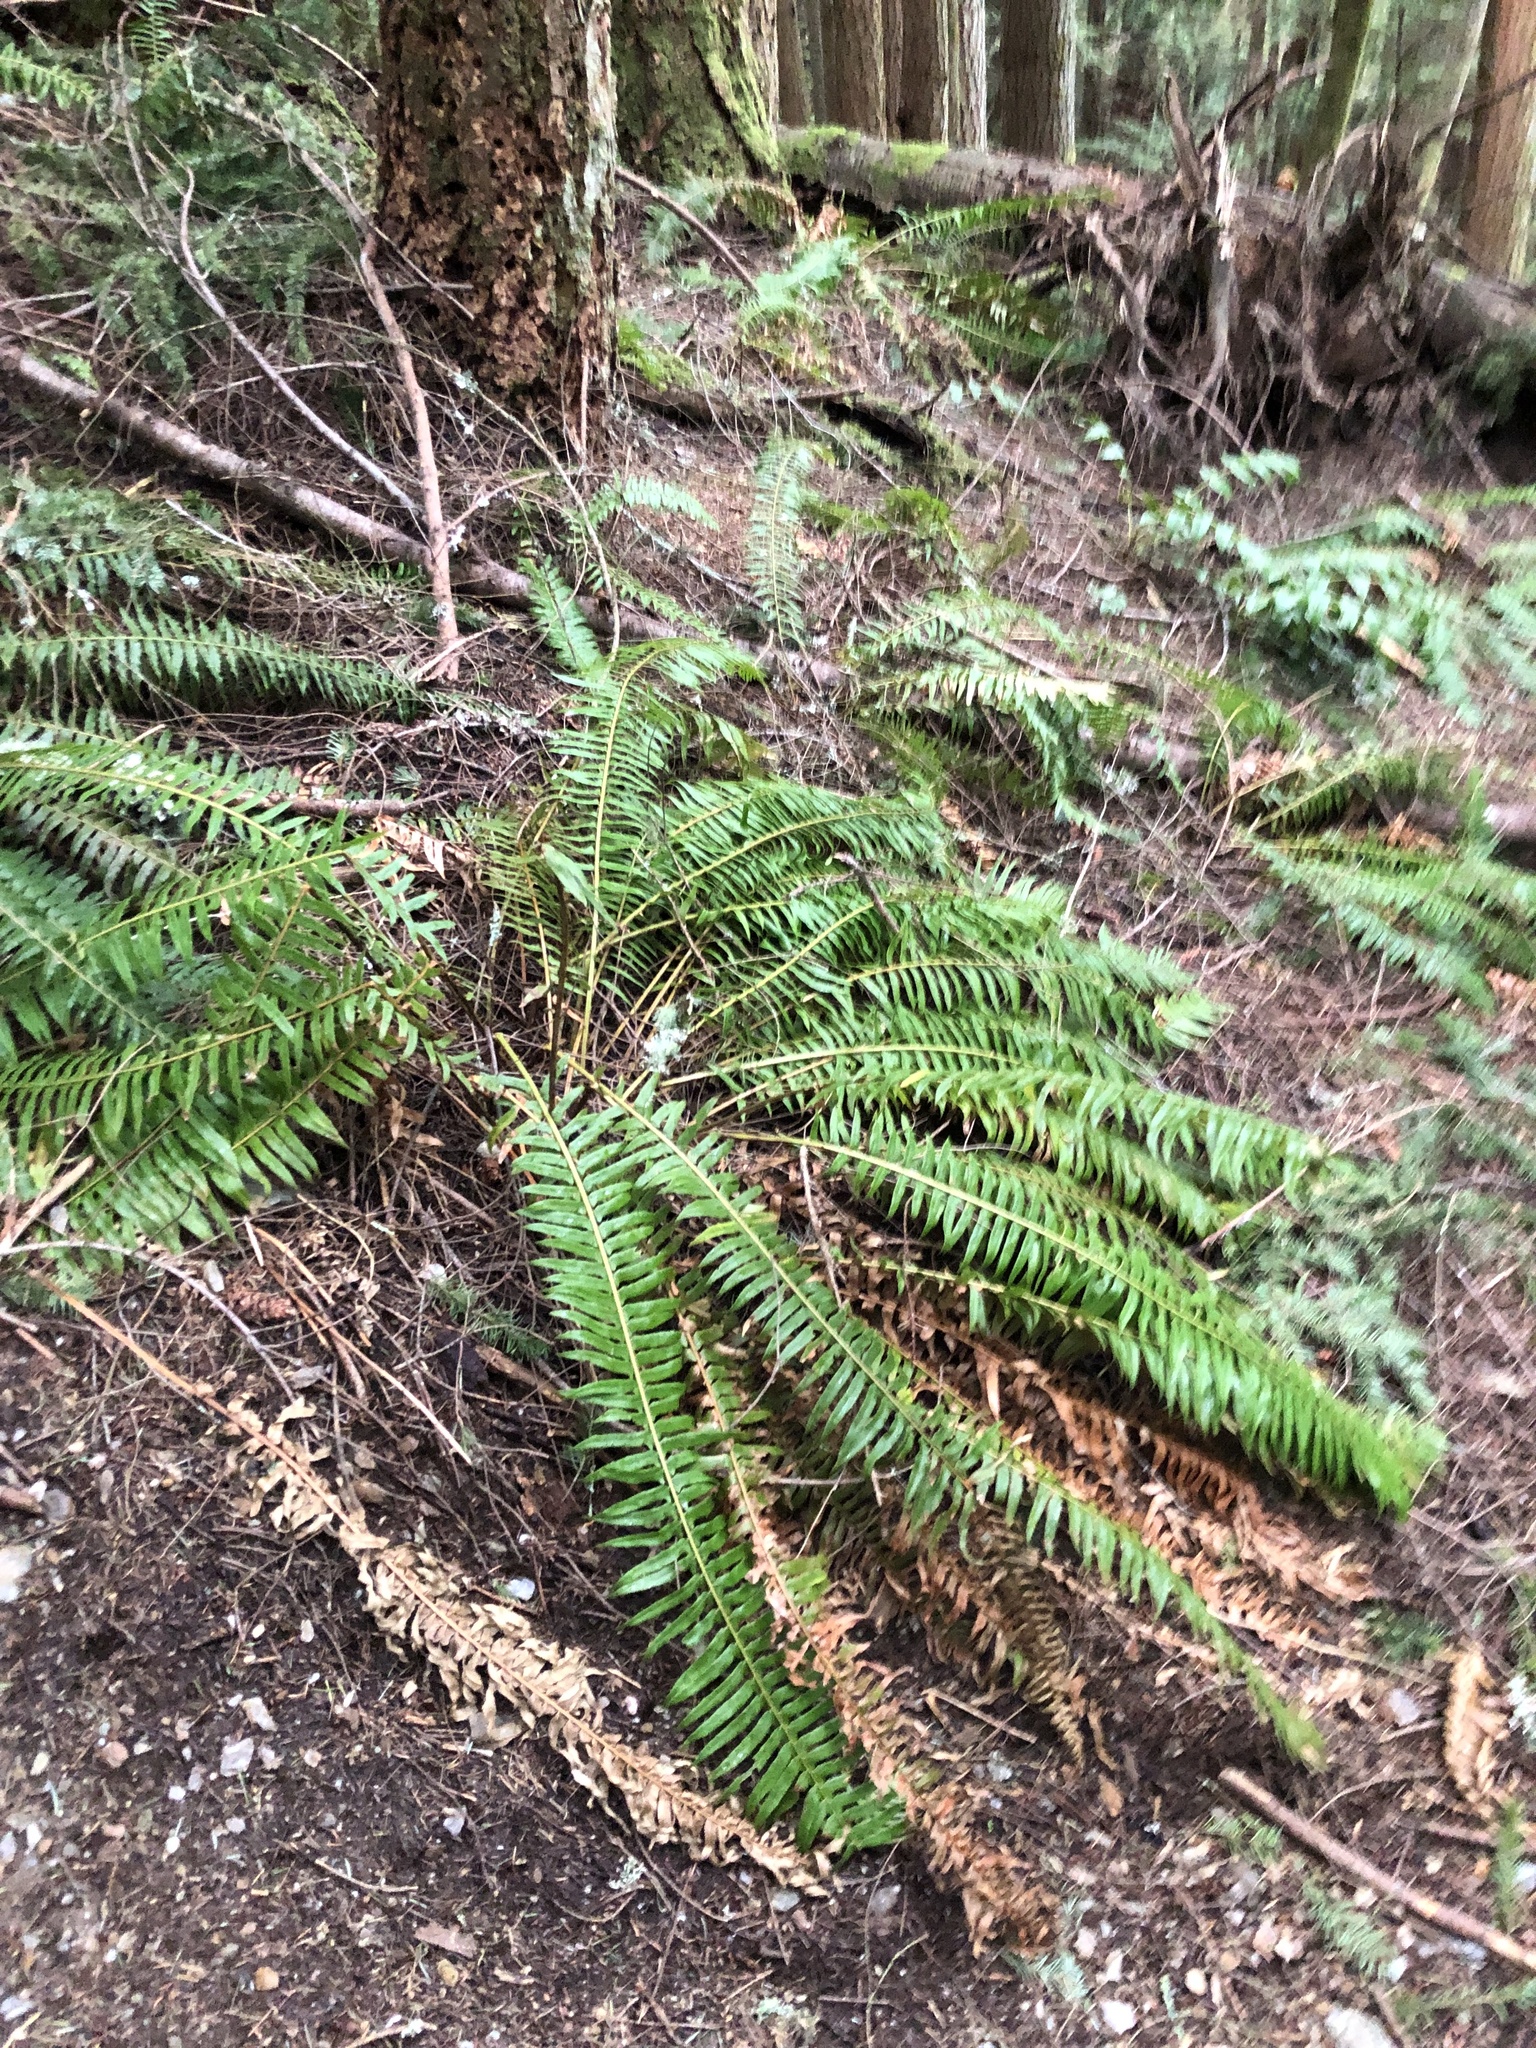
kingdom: Plantae
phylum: Tracheophyta
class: Polypodiopsida
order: Polypodiales
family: Dryopteridaceae
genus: Polystichum
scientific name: Polystichum munitum
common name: Western sword-fern
